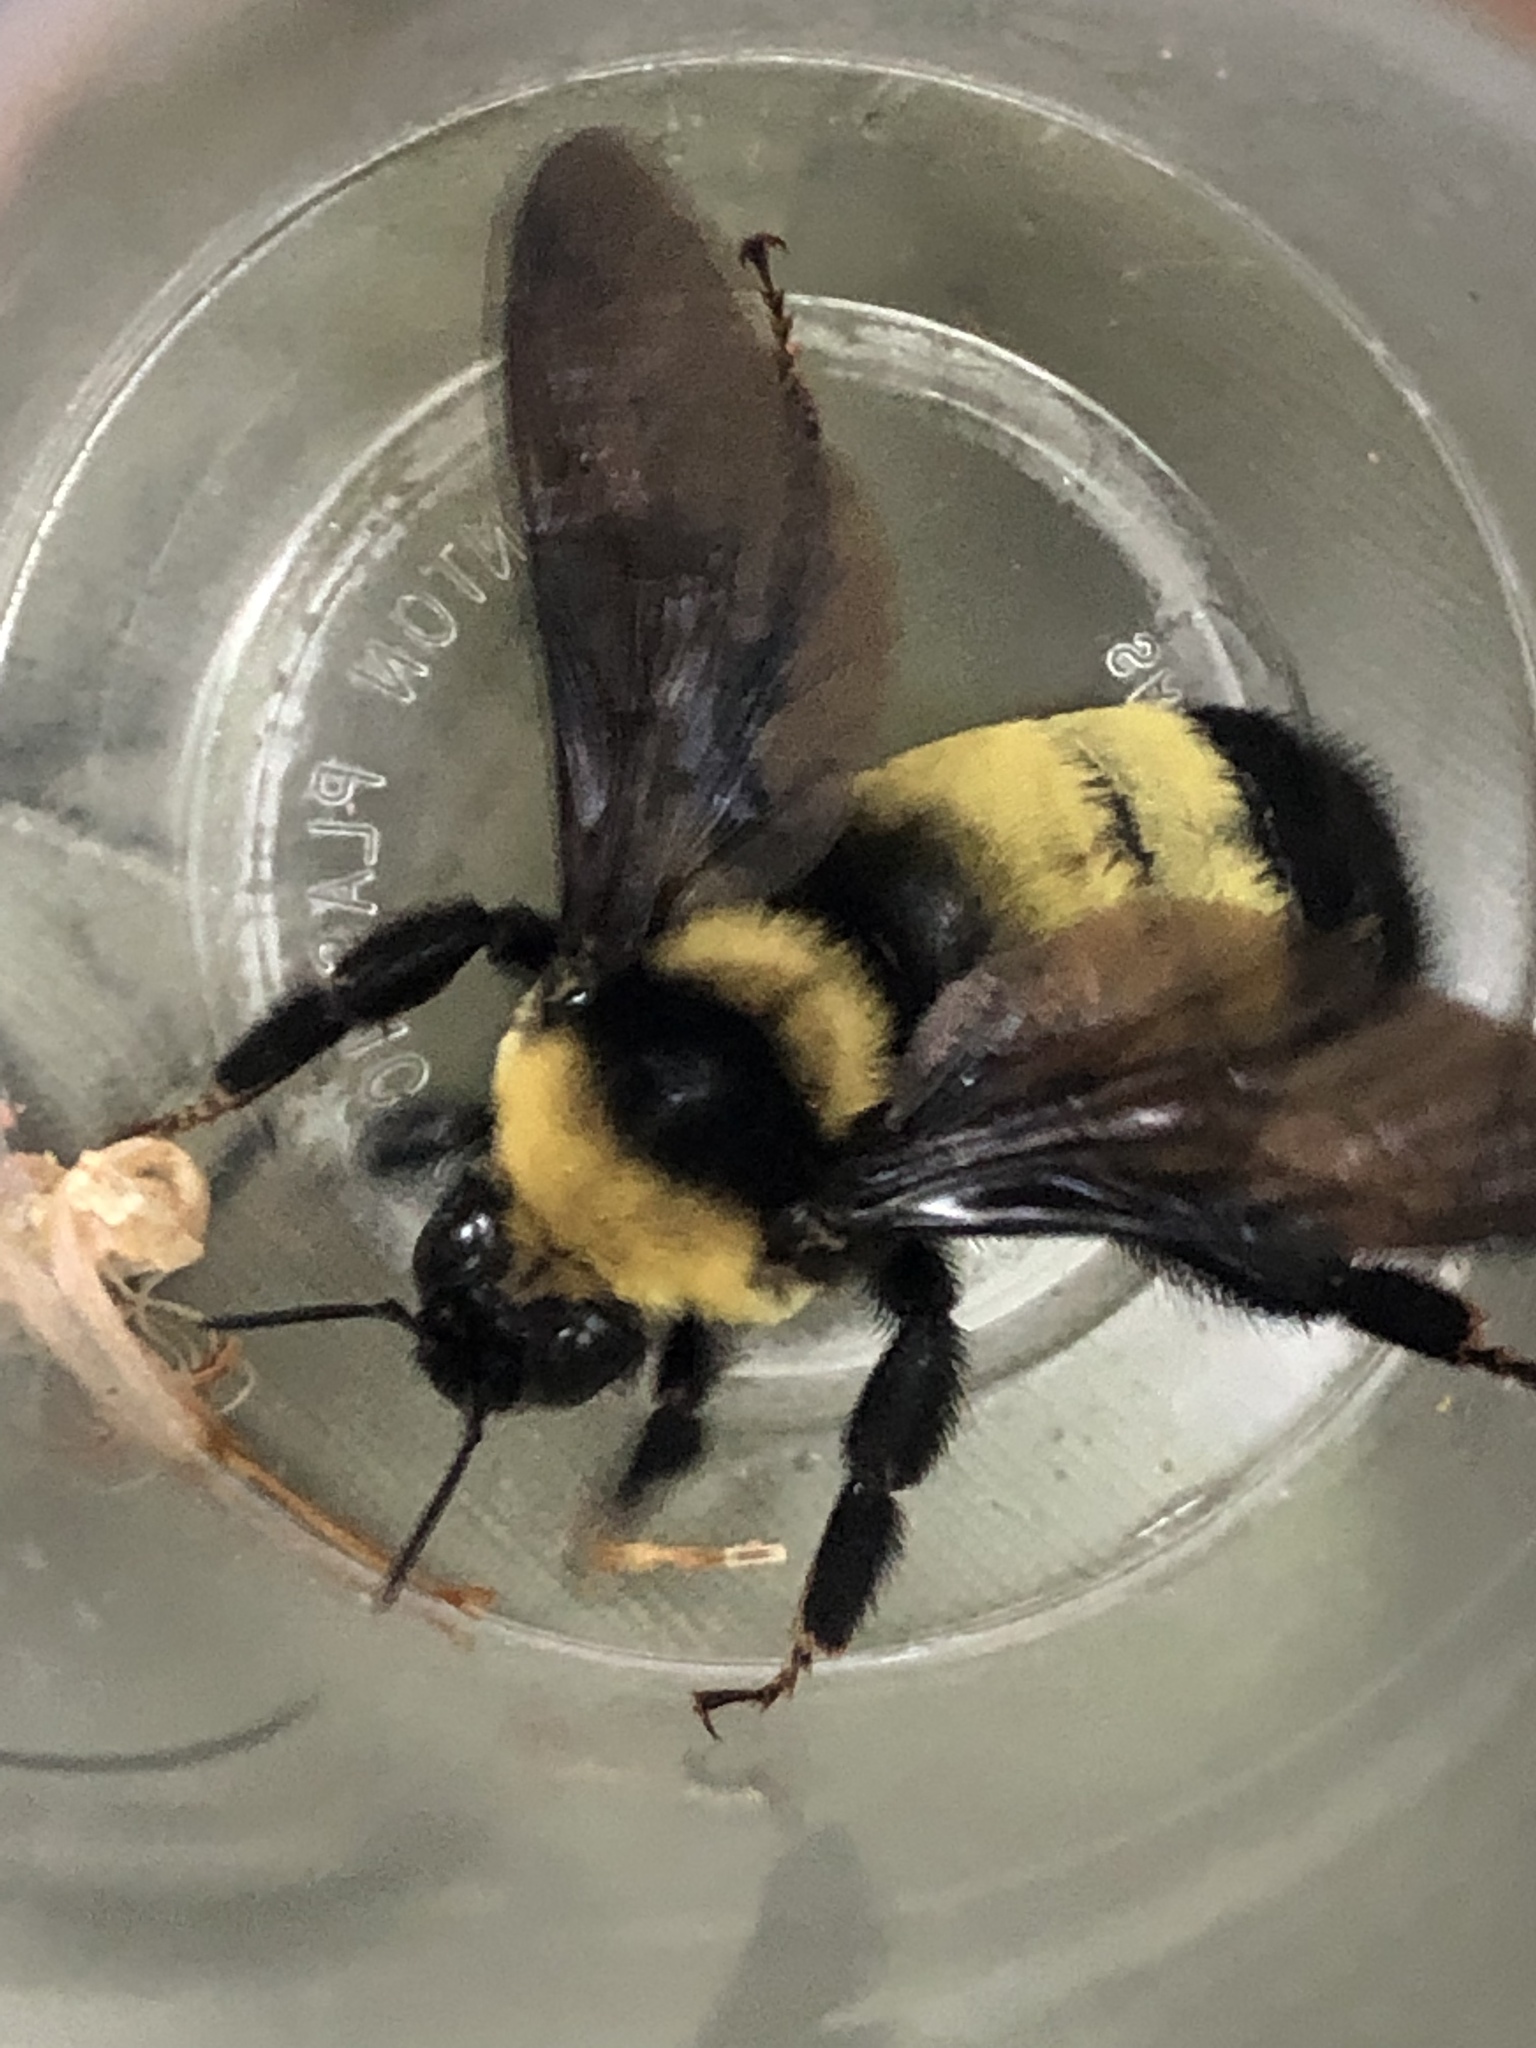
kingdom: Animalia
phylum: Arthropoda
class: Insecta
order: Hymenoptera
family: Apidae
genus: Bombus
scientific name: Bombus auricomus
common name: Black and gold bumble bee
